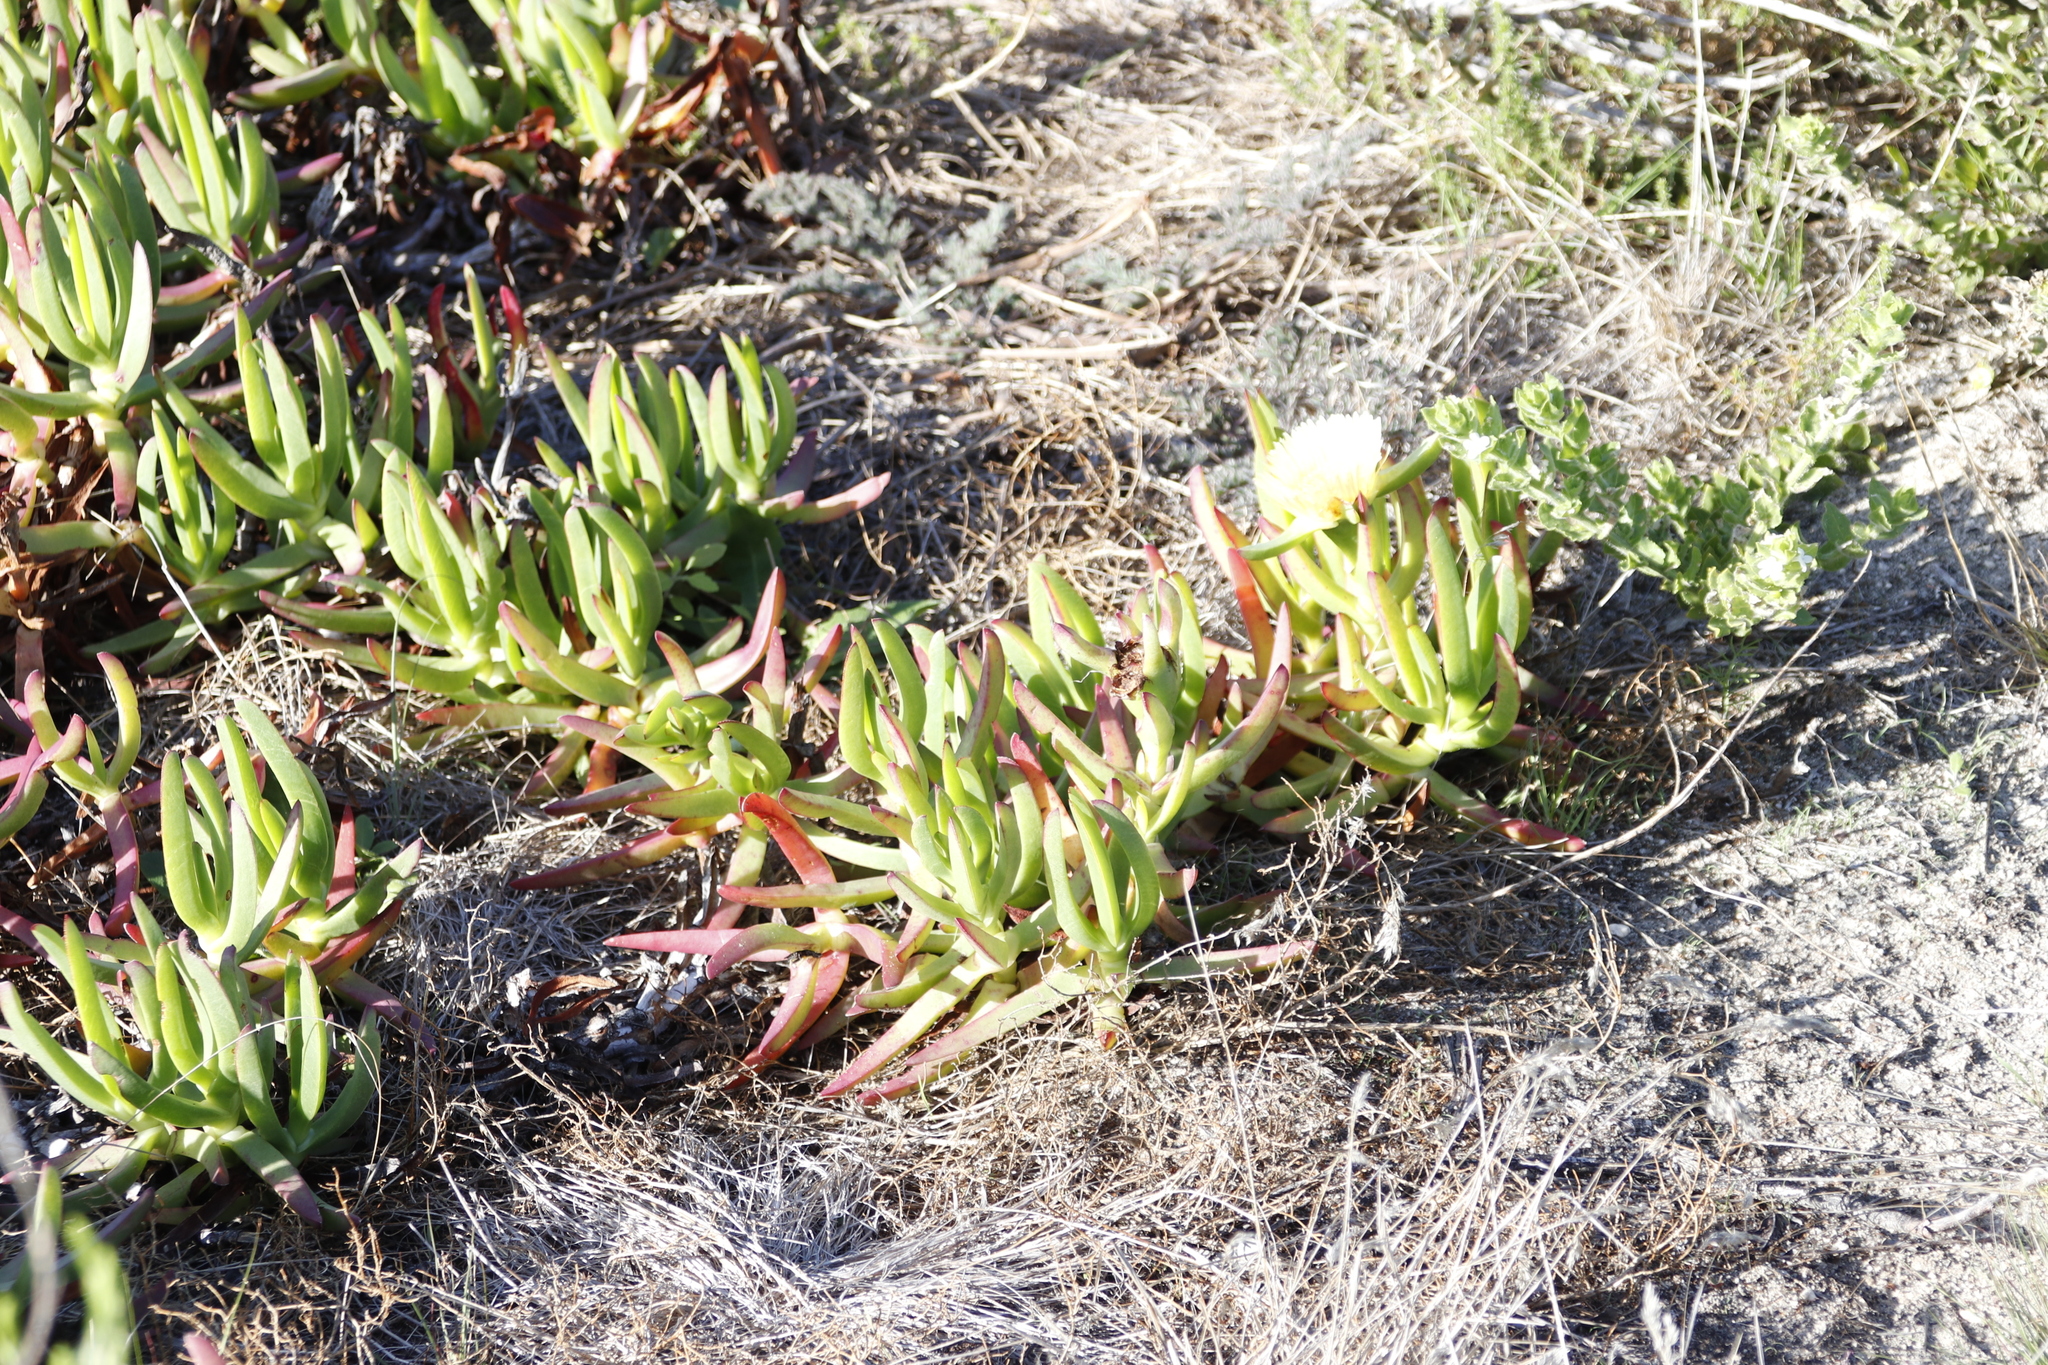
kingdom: Plantae
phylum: Tracheophyta
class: Magnoliopsida
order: Caryophyllales
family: Aizoaceae
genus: Carpobrotus
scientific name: Carpobrotus edulis
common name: Hottentot-fig
